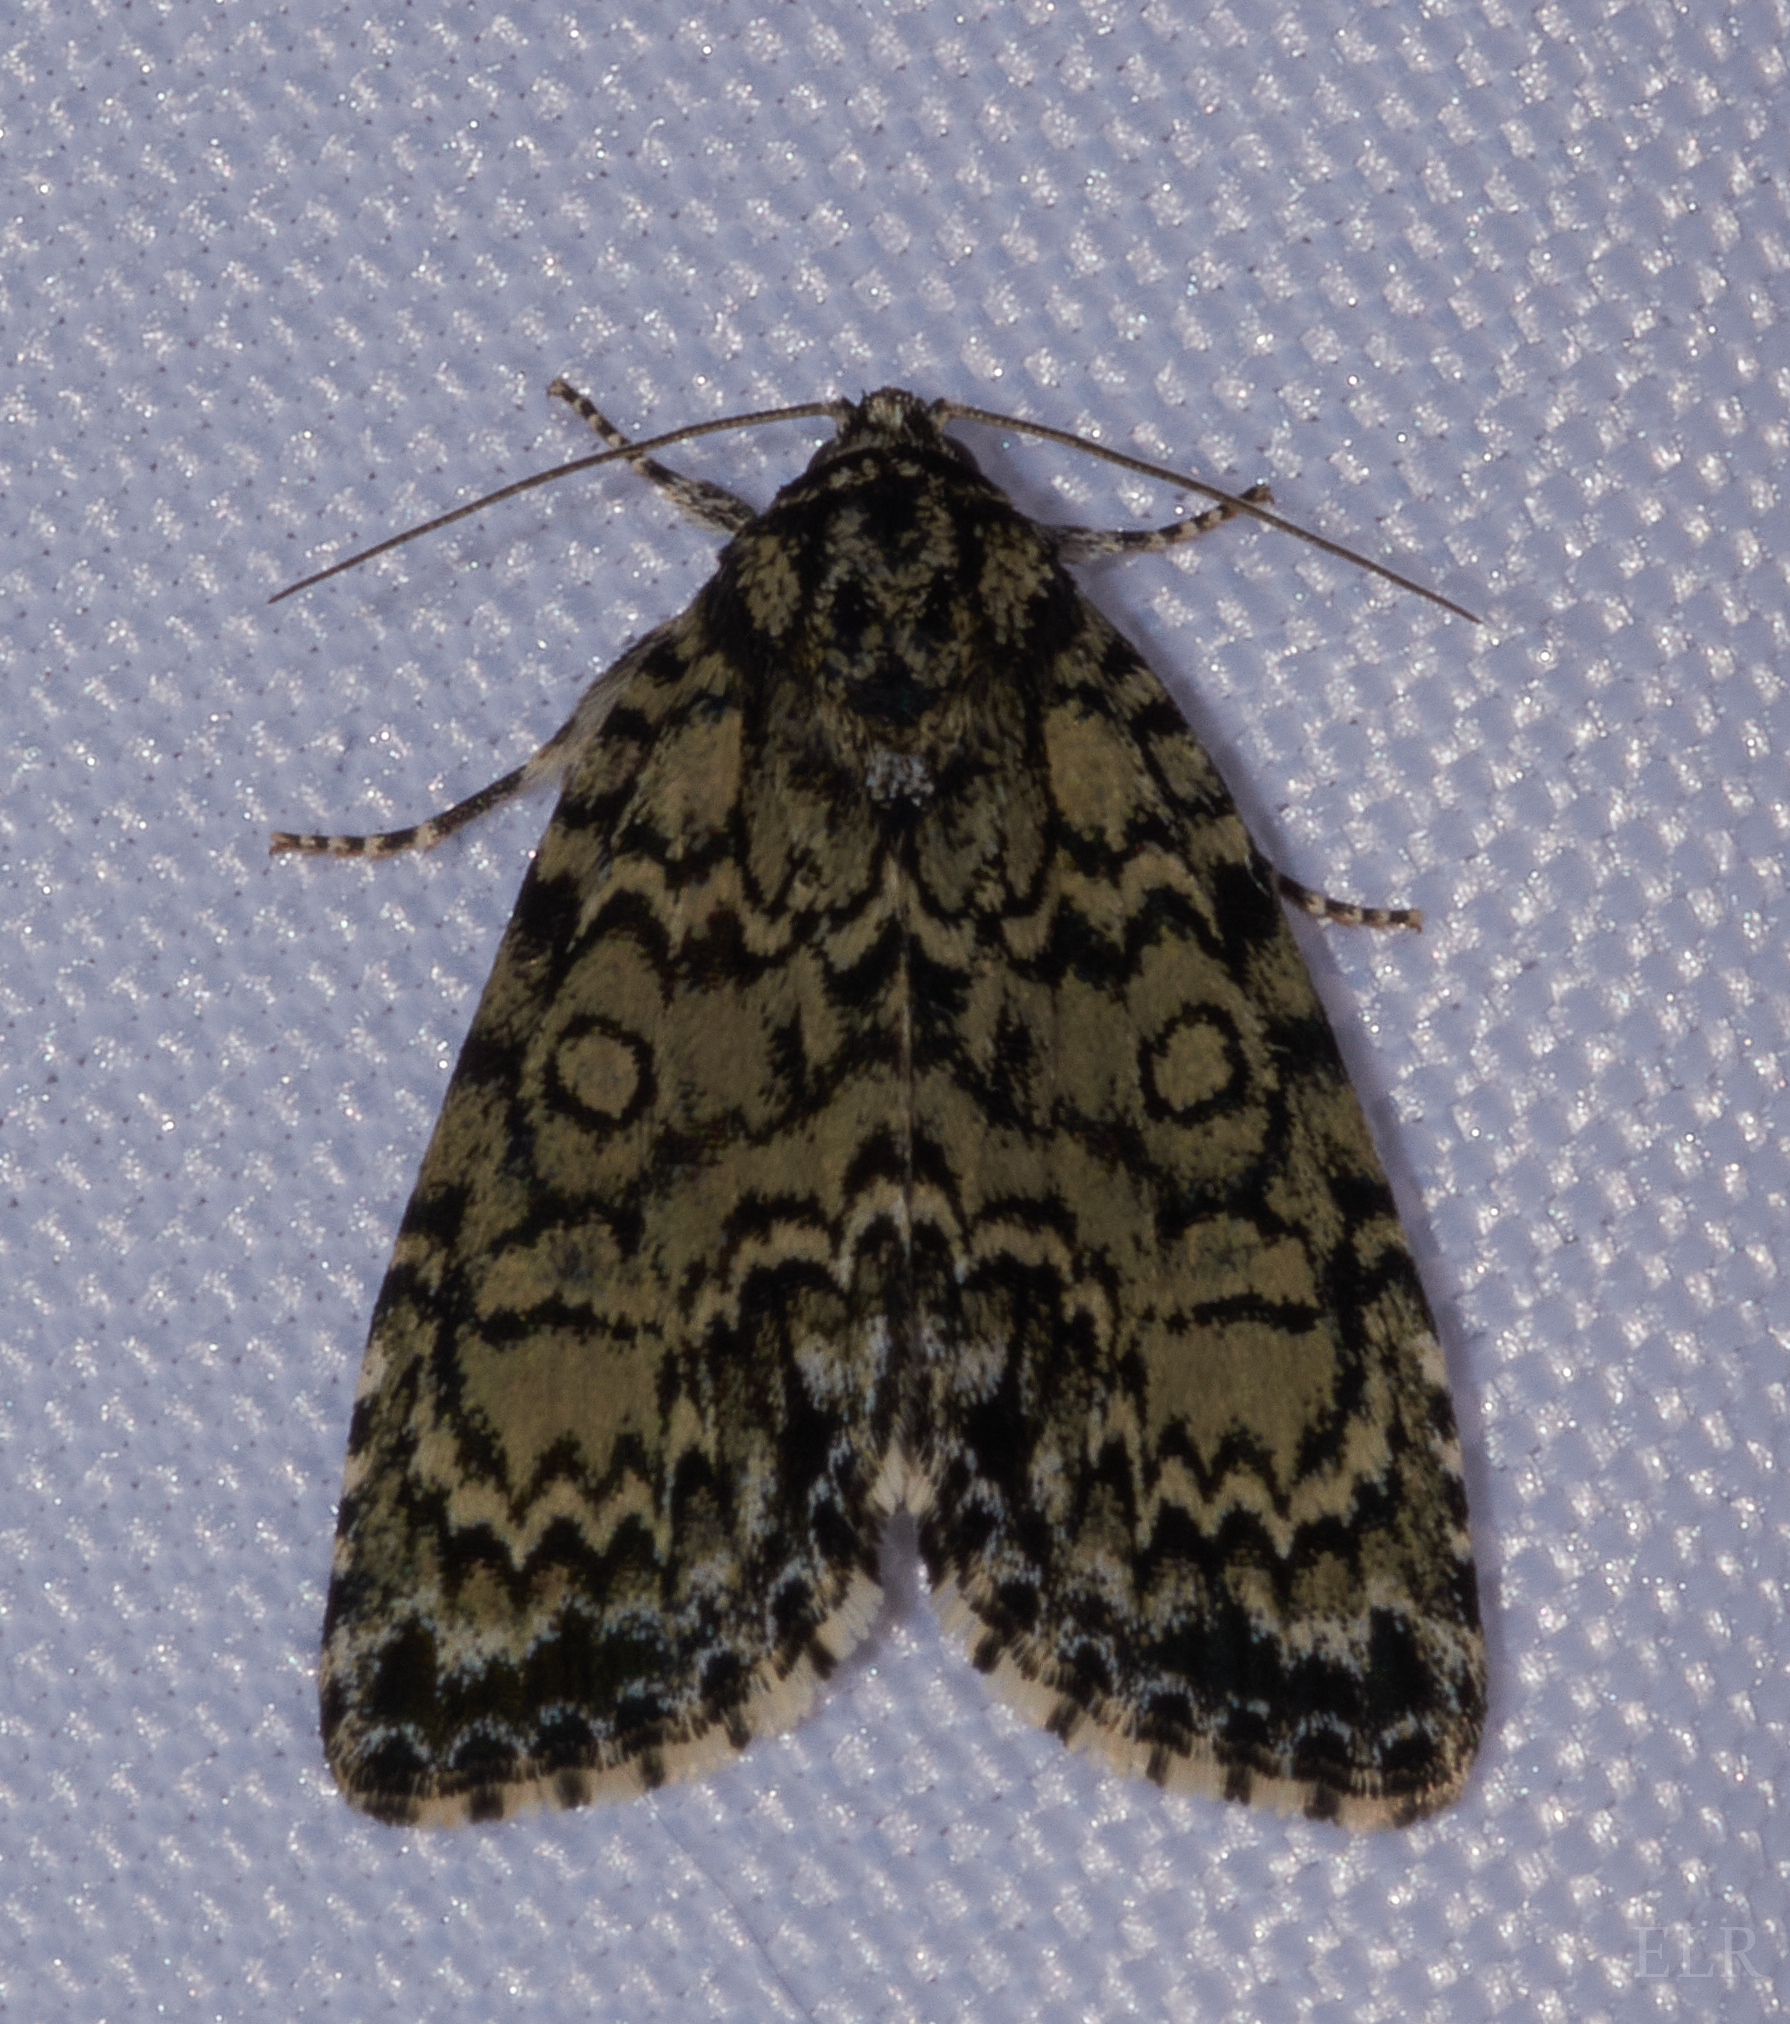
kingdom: Animalia
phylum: Arthropoda
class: Insecta
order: Lepidoptera
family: Noctuidae
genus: Acronicta
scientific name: Acronicta heitzmani
